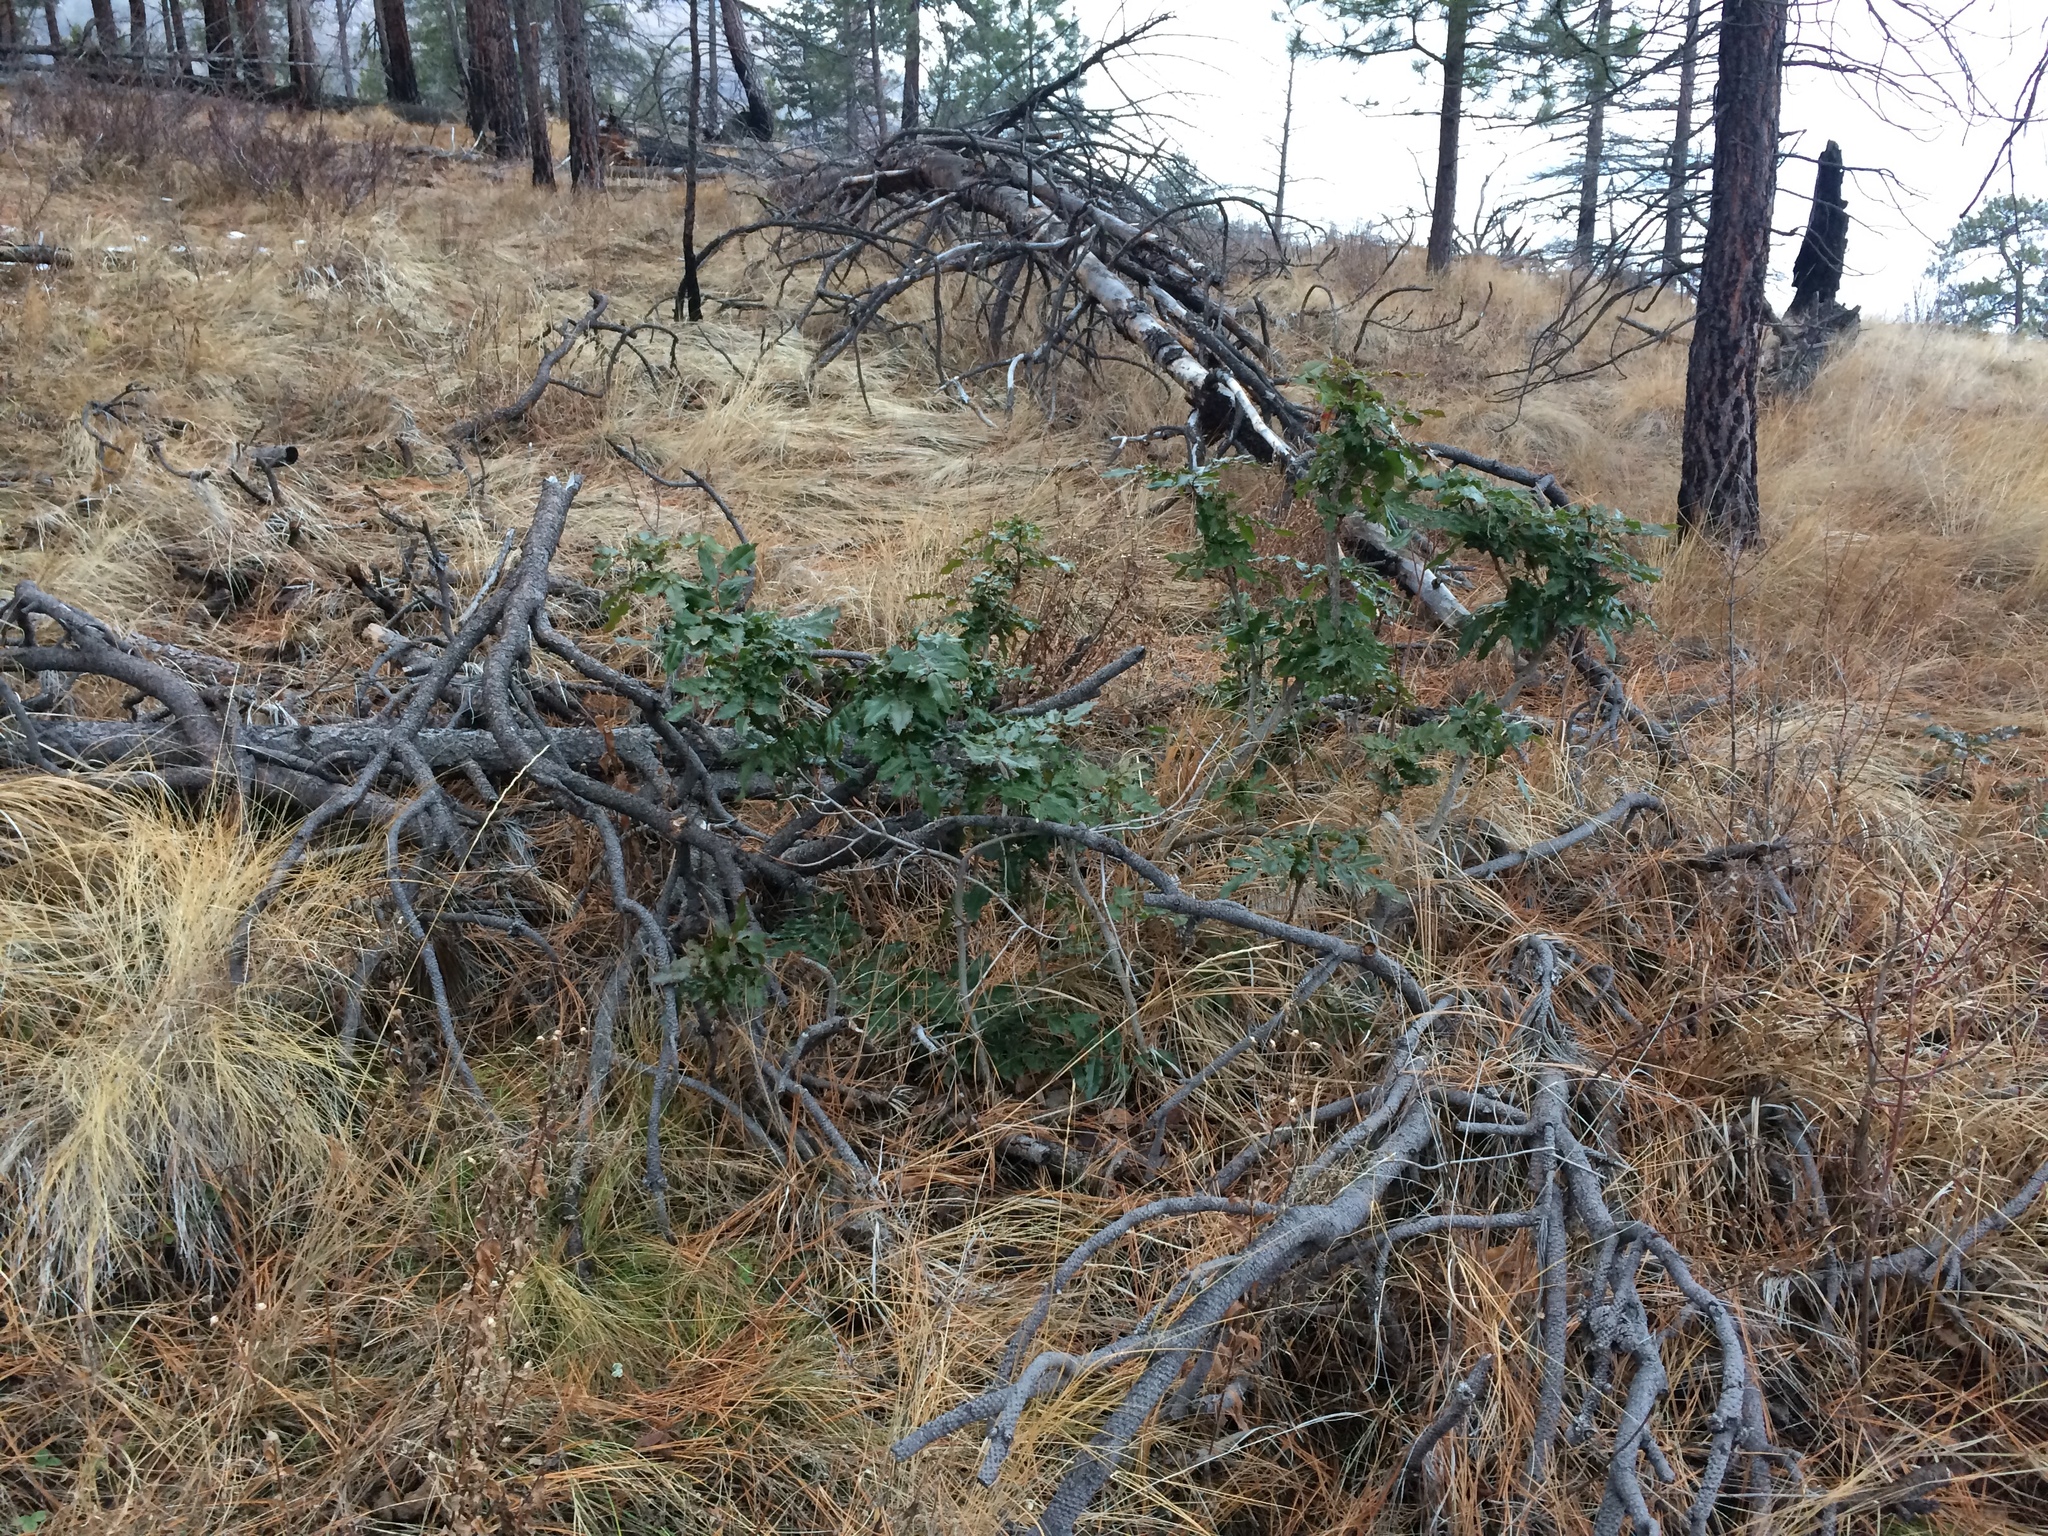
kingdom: Plantae
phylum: Tracheophyta
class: Magnoliopsida
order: Ranunculales
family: Berberidaceae
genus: Mahonia
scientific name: Mahonia aquifolium
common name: Oregon-grape
